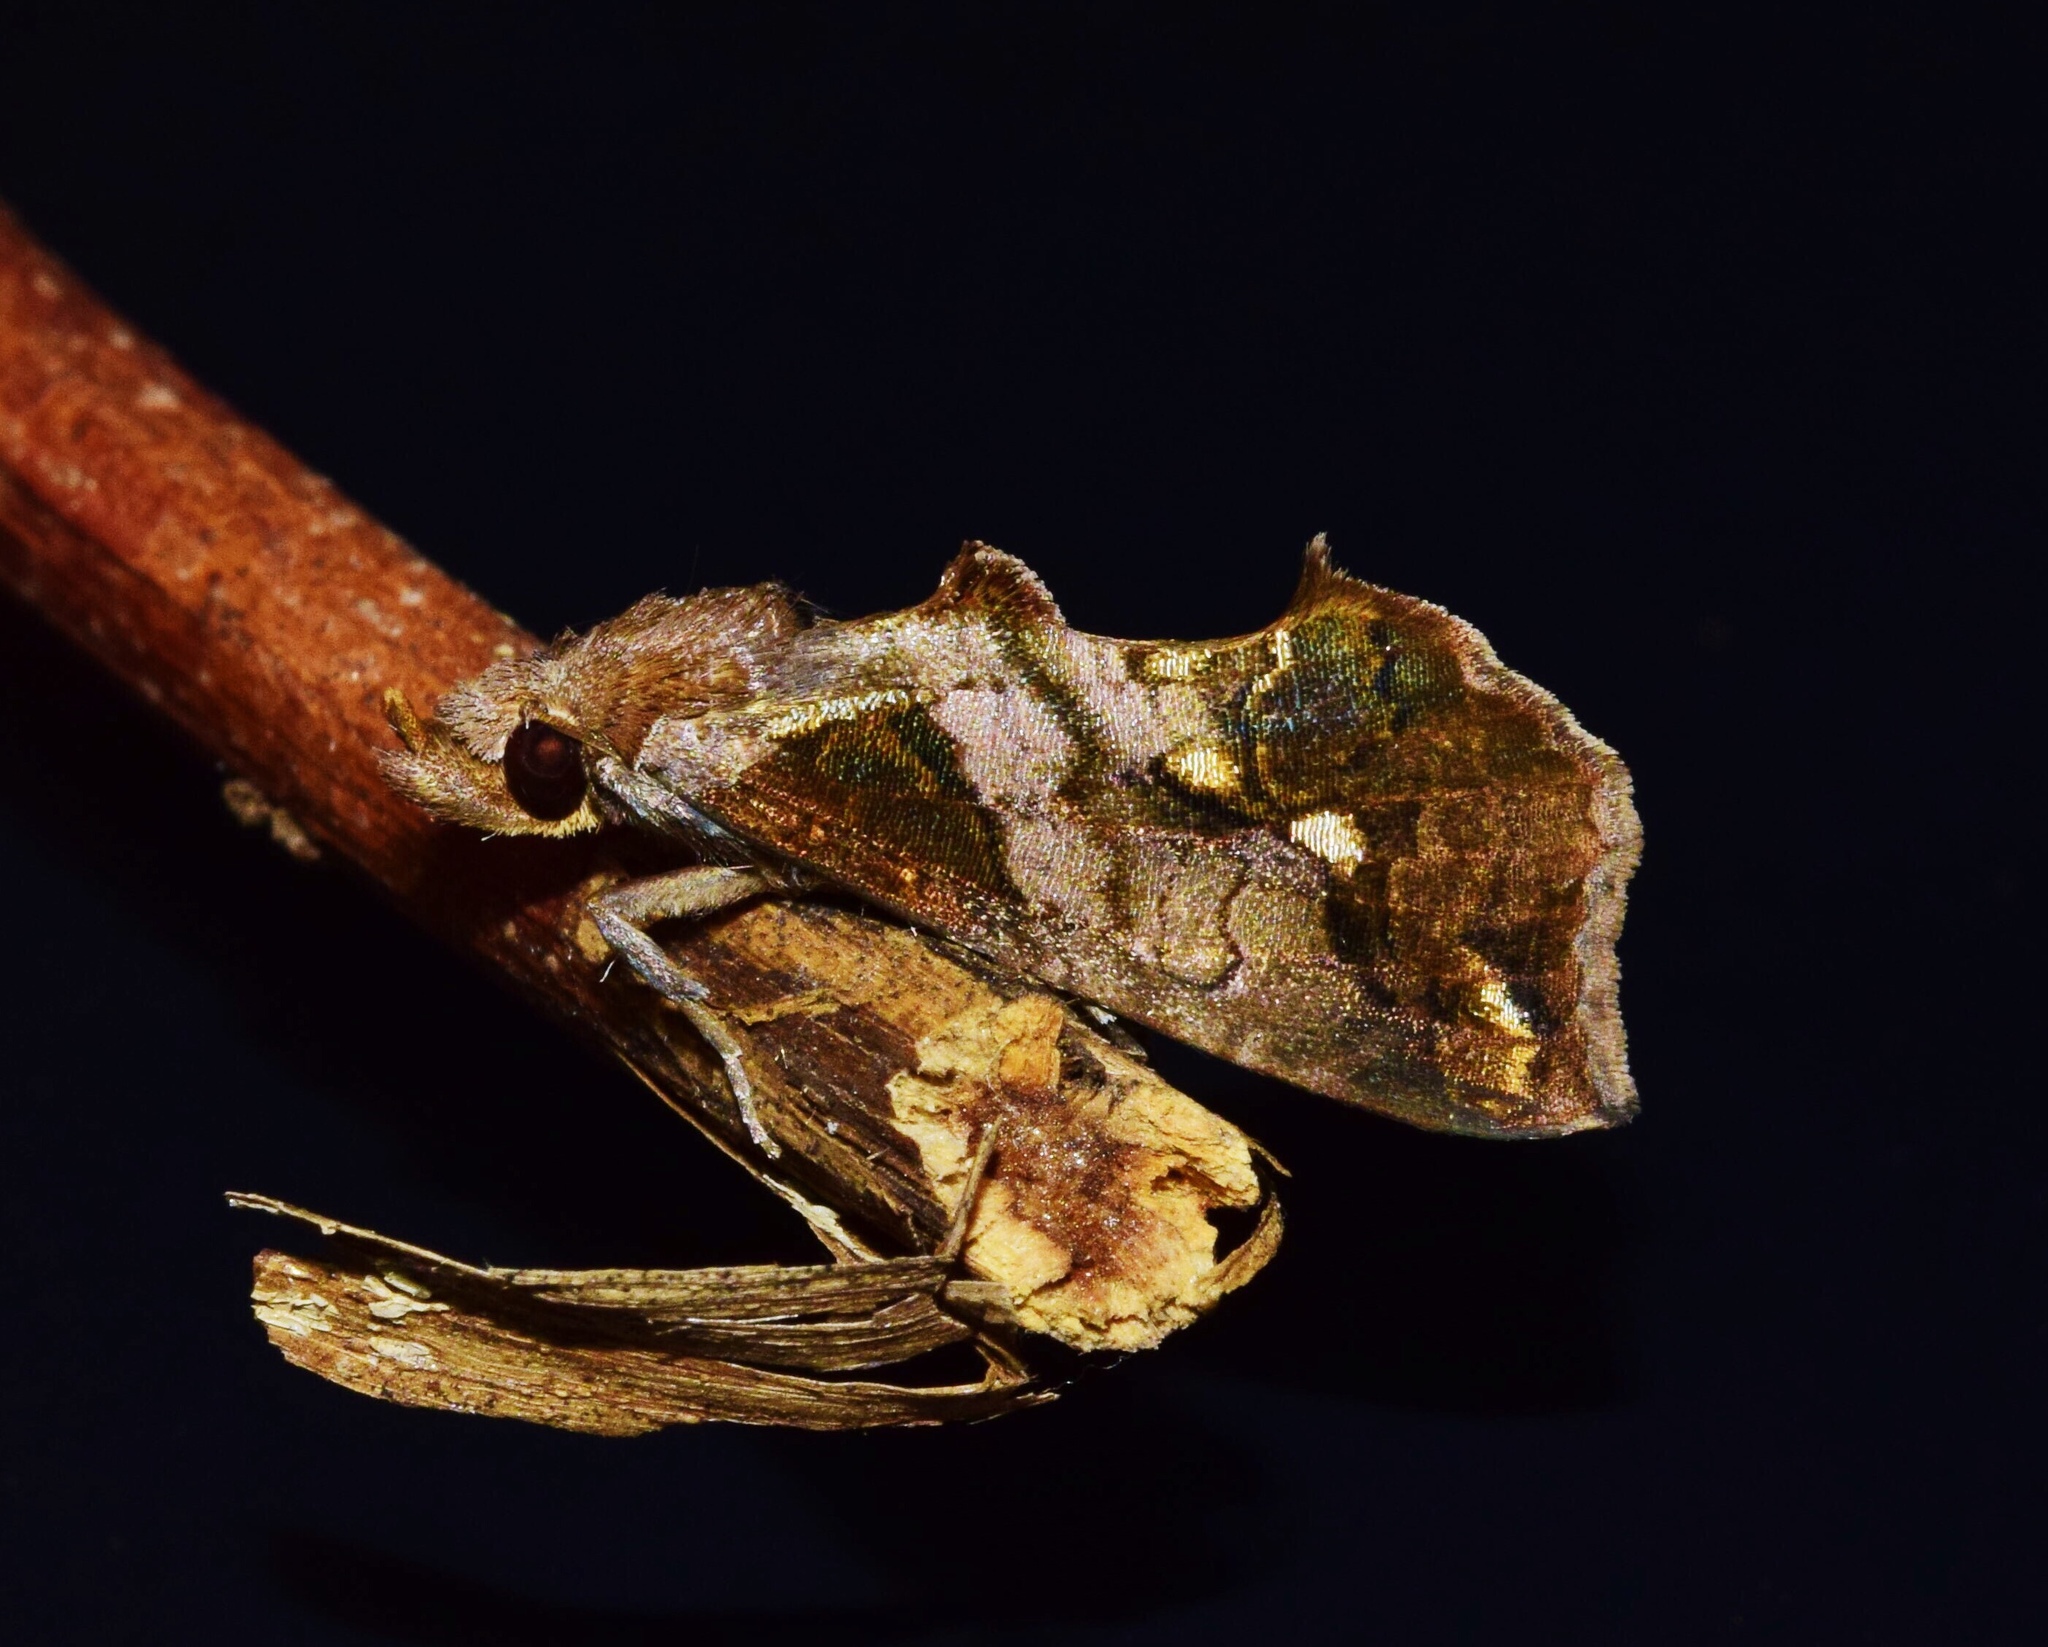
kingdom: Animalia
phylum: Arthropoda
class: Insecta
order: Lepidoptera
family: Erebidae
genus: Plusiodonta
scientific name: Plusiodonta achalcea
